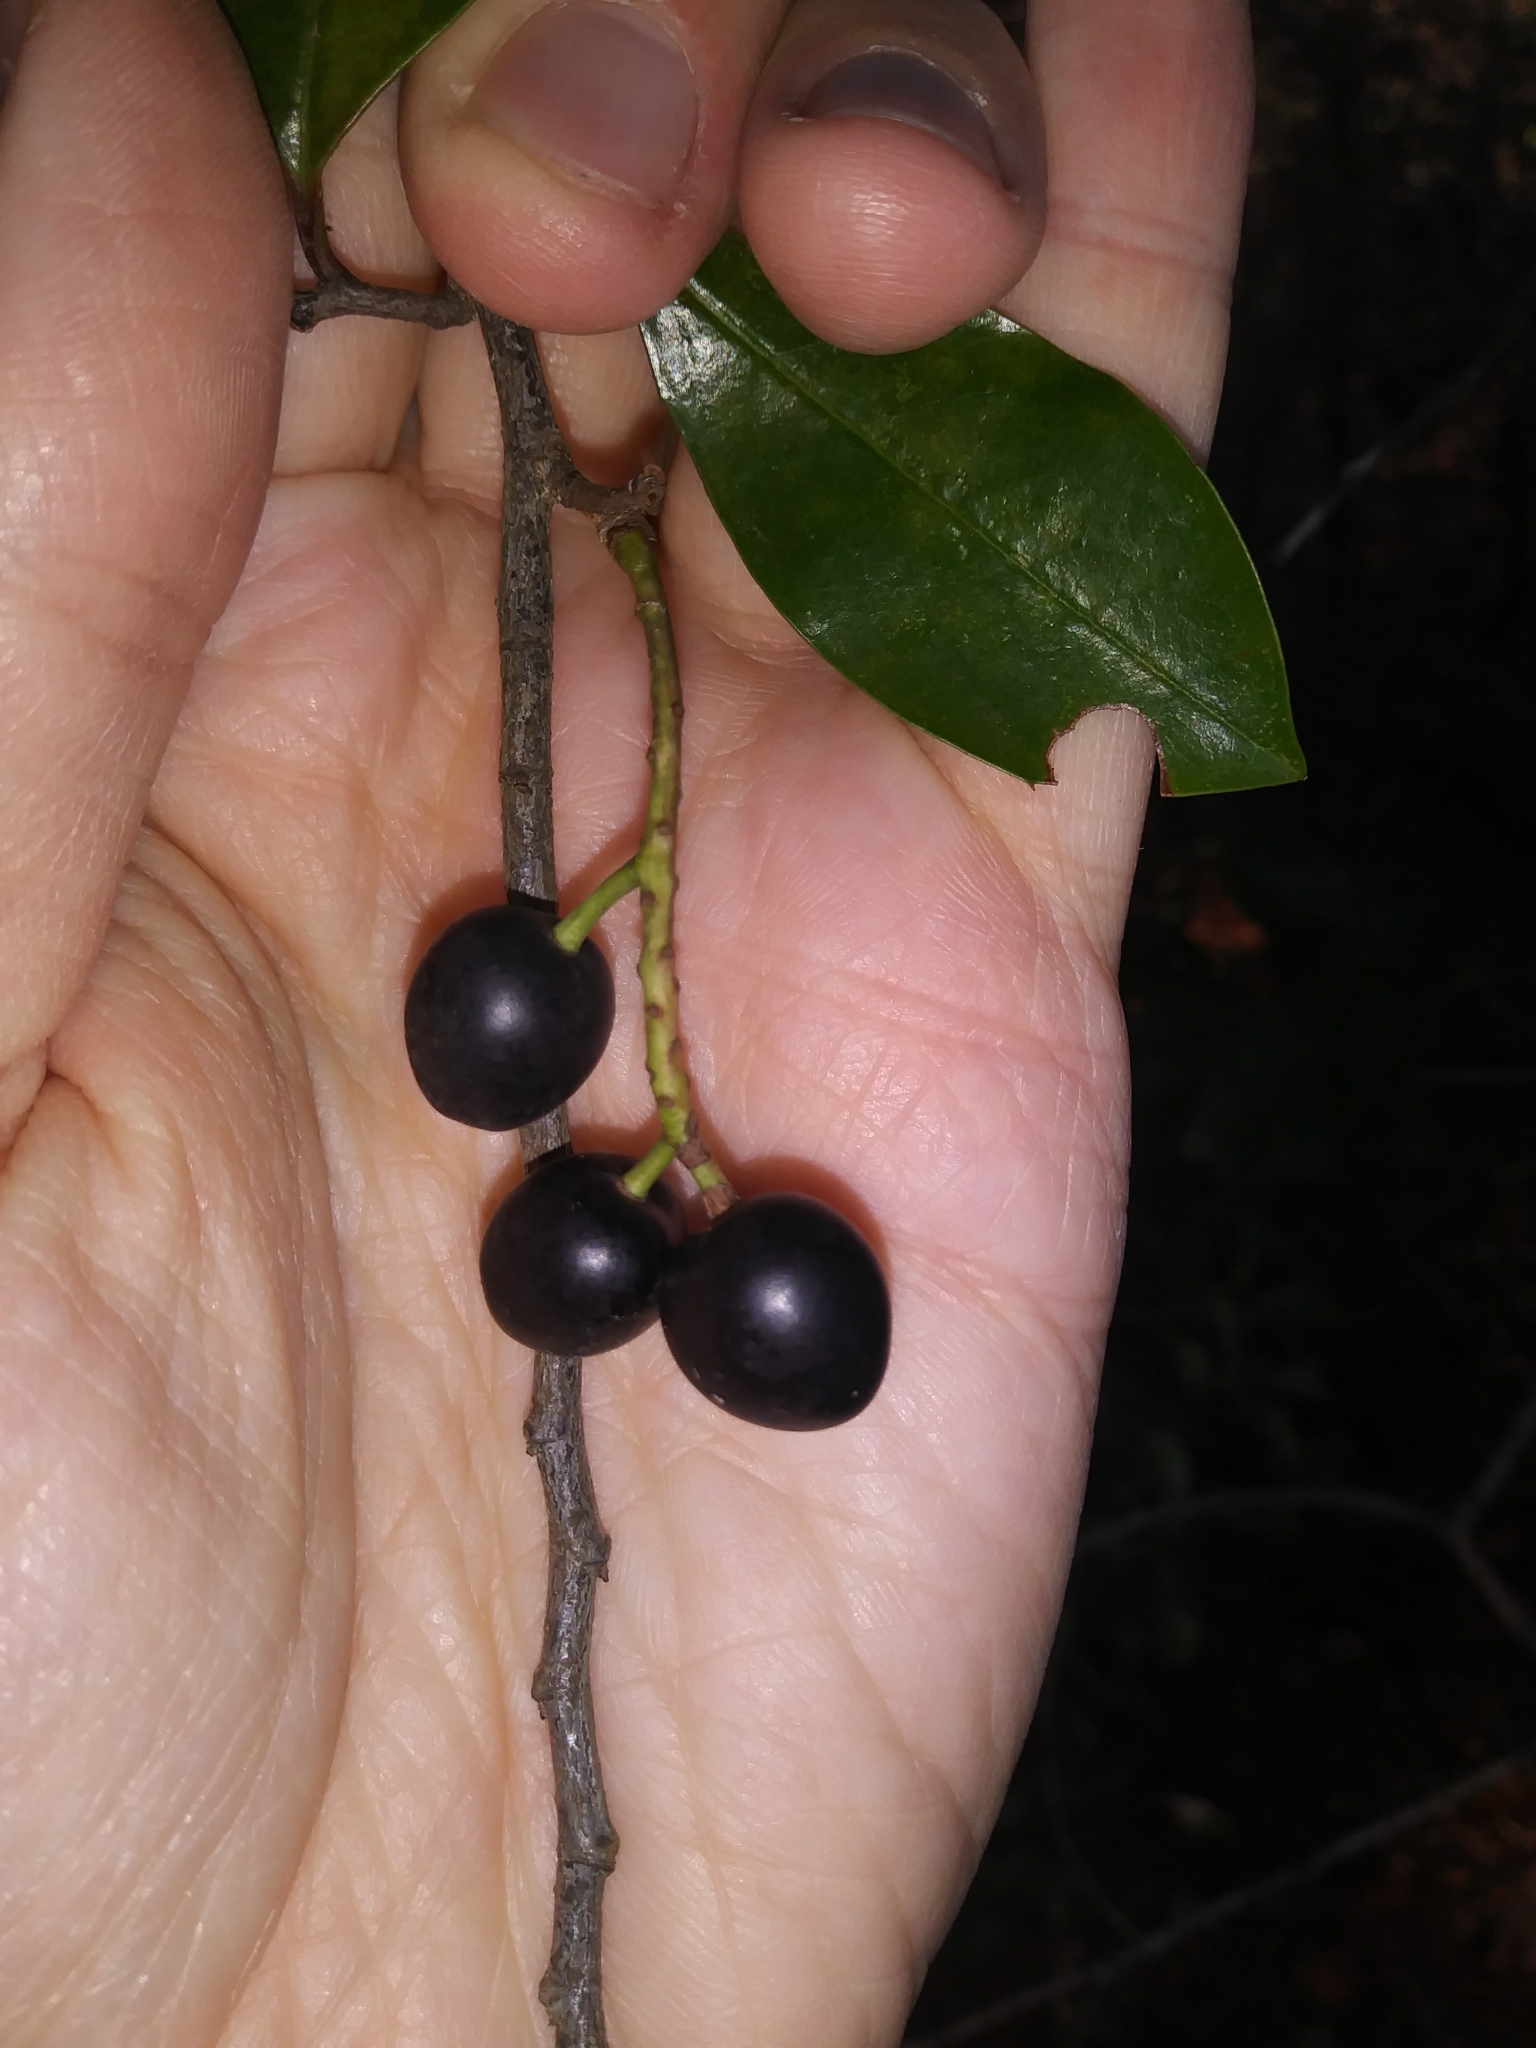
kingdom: Plantae
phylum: Tracheophyta
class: Magnoliopsida
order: Rosales
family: Rosaceae
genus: Prunus
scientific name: Prunus caroliniana
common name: Carolina laurel cherry
